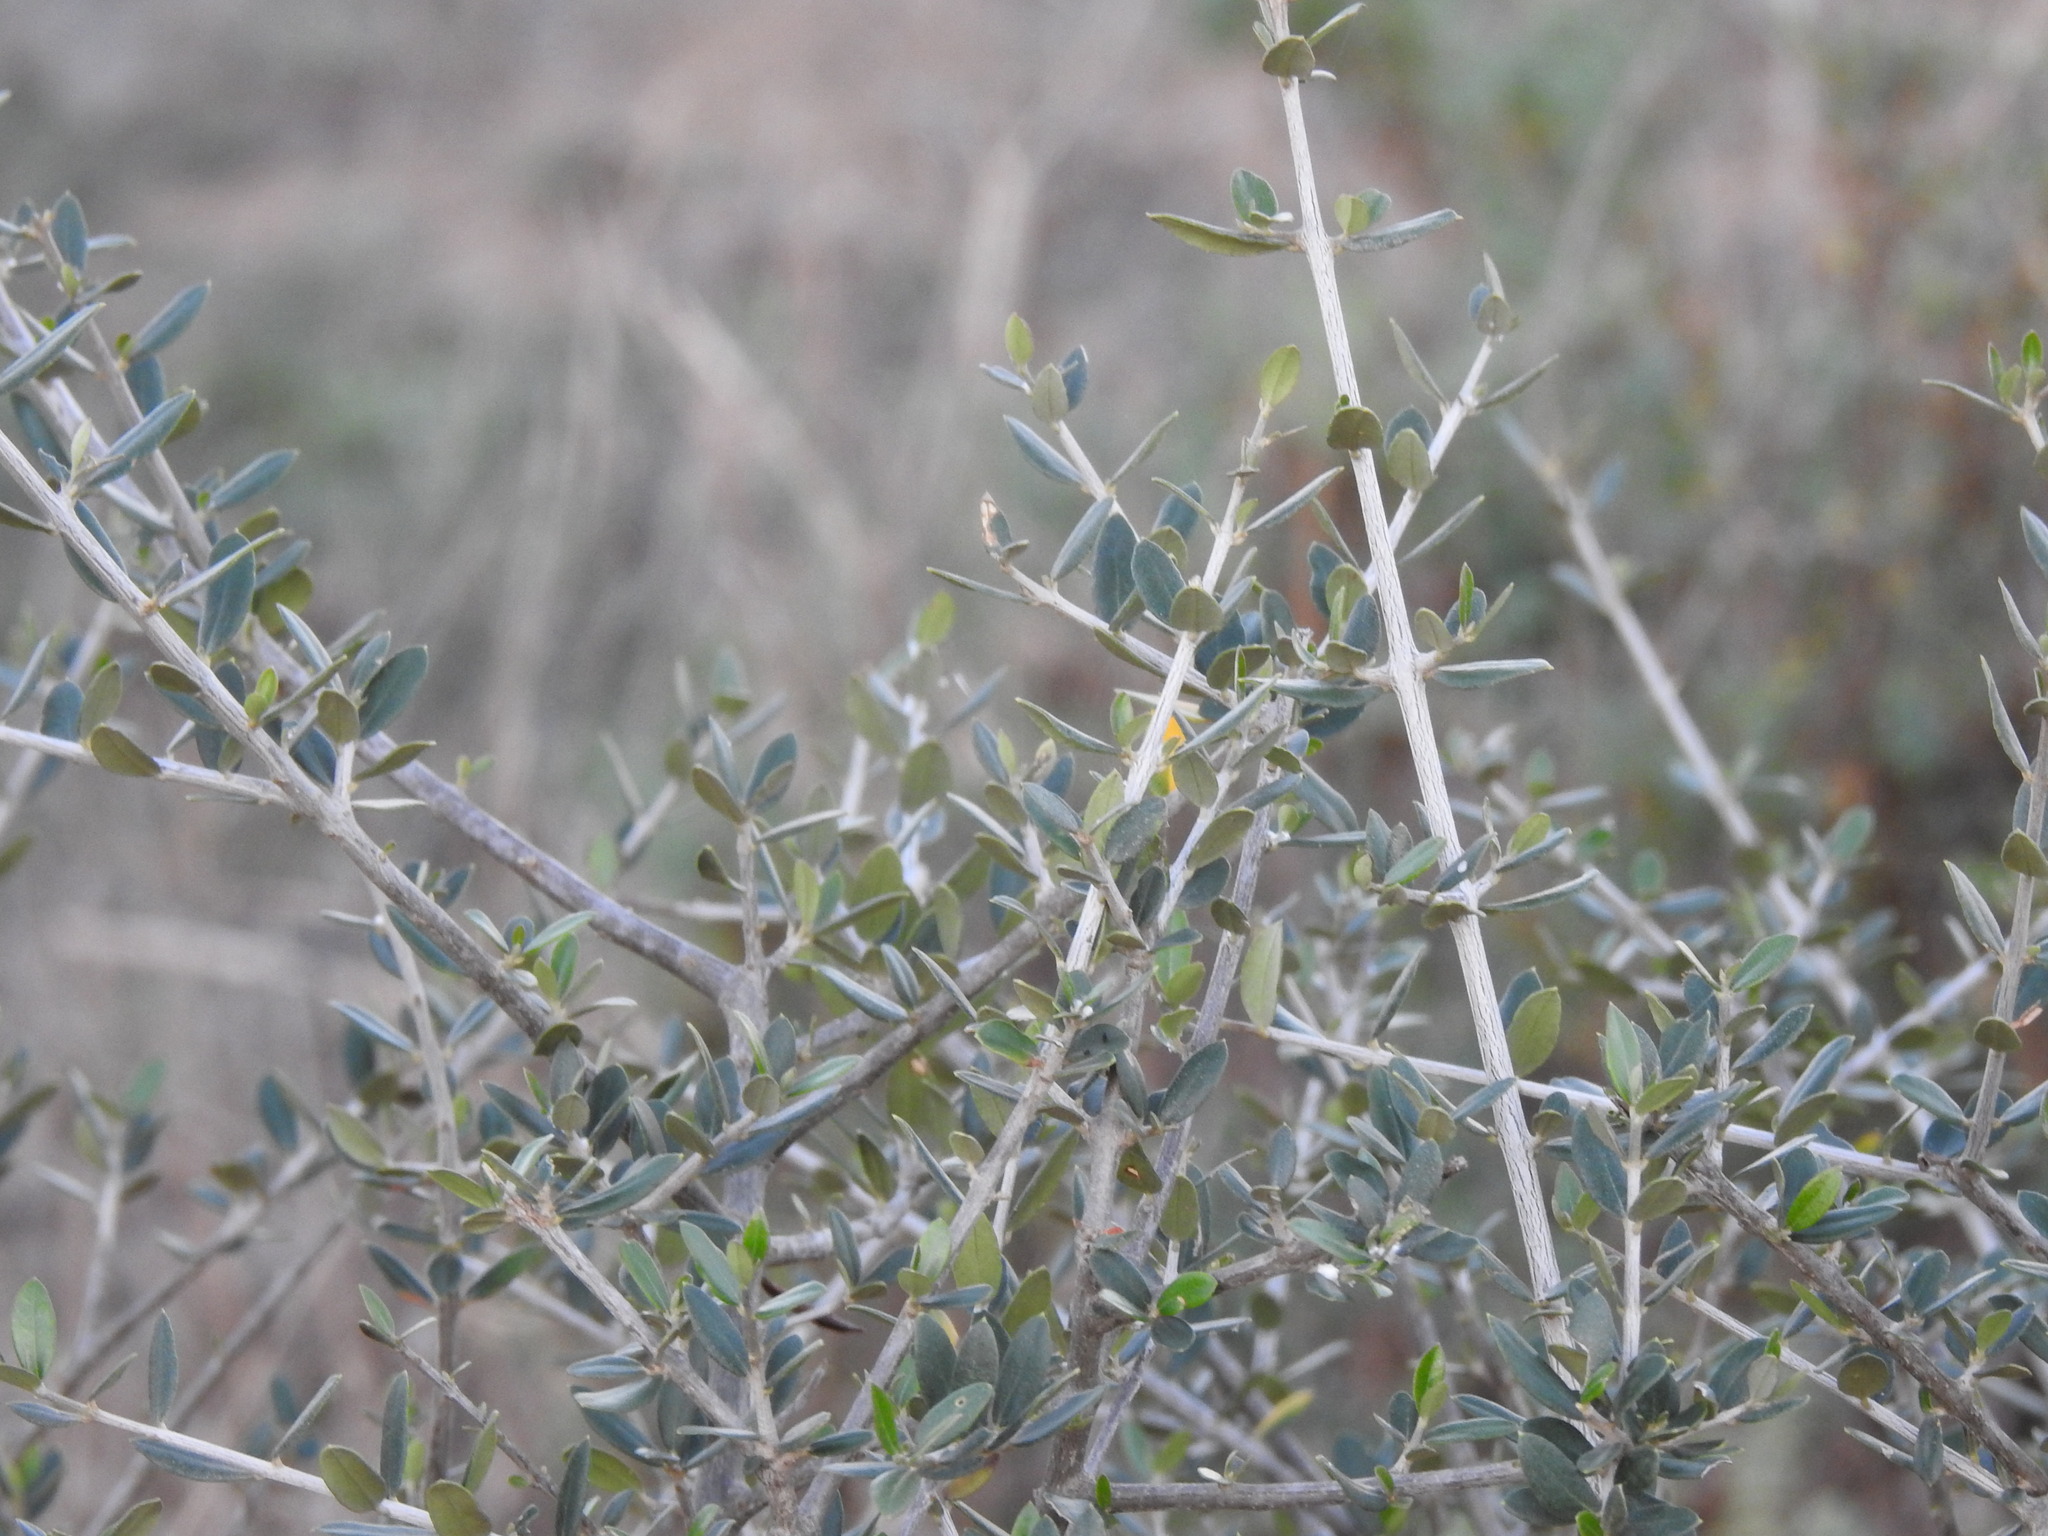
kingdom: Plantae
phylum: Tracheophyta
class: Magnoliopsida
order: Lamiales
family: Oleaceae
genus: Olea
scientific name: Olea europaea
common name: Olive
